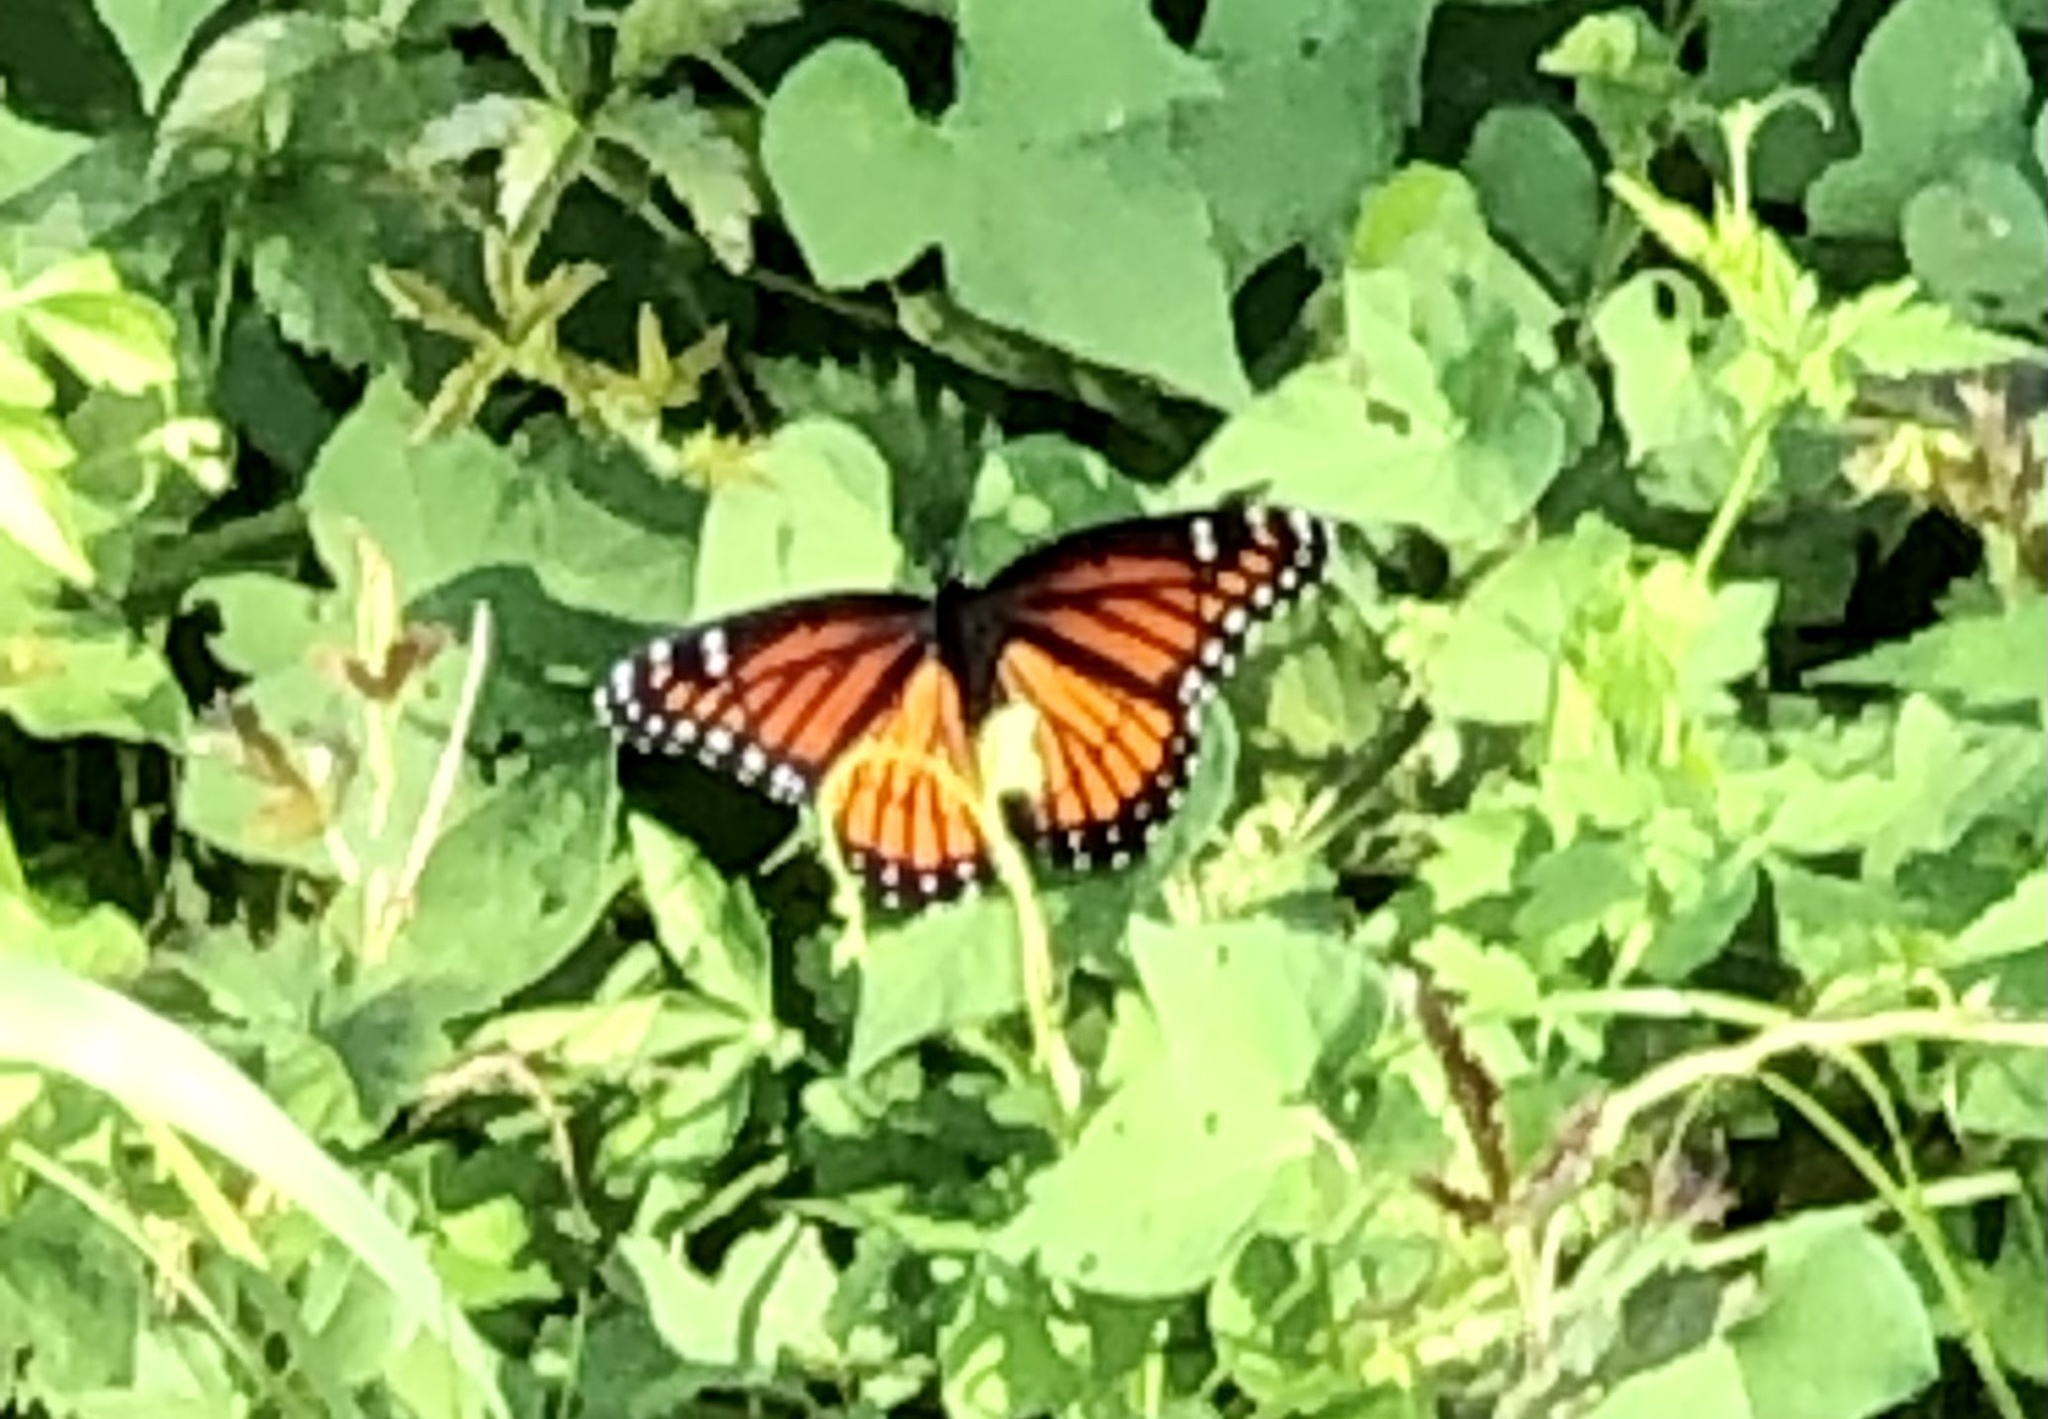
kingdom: Animalia
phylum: Arthropoda
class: Insecta
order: Lepidoptera
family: Nymphalidae
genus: Limenitis
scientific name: Limenitis archippus
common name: Viceroy
